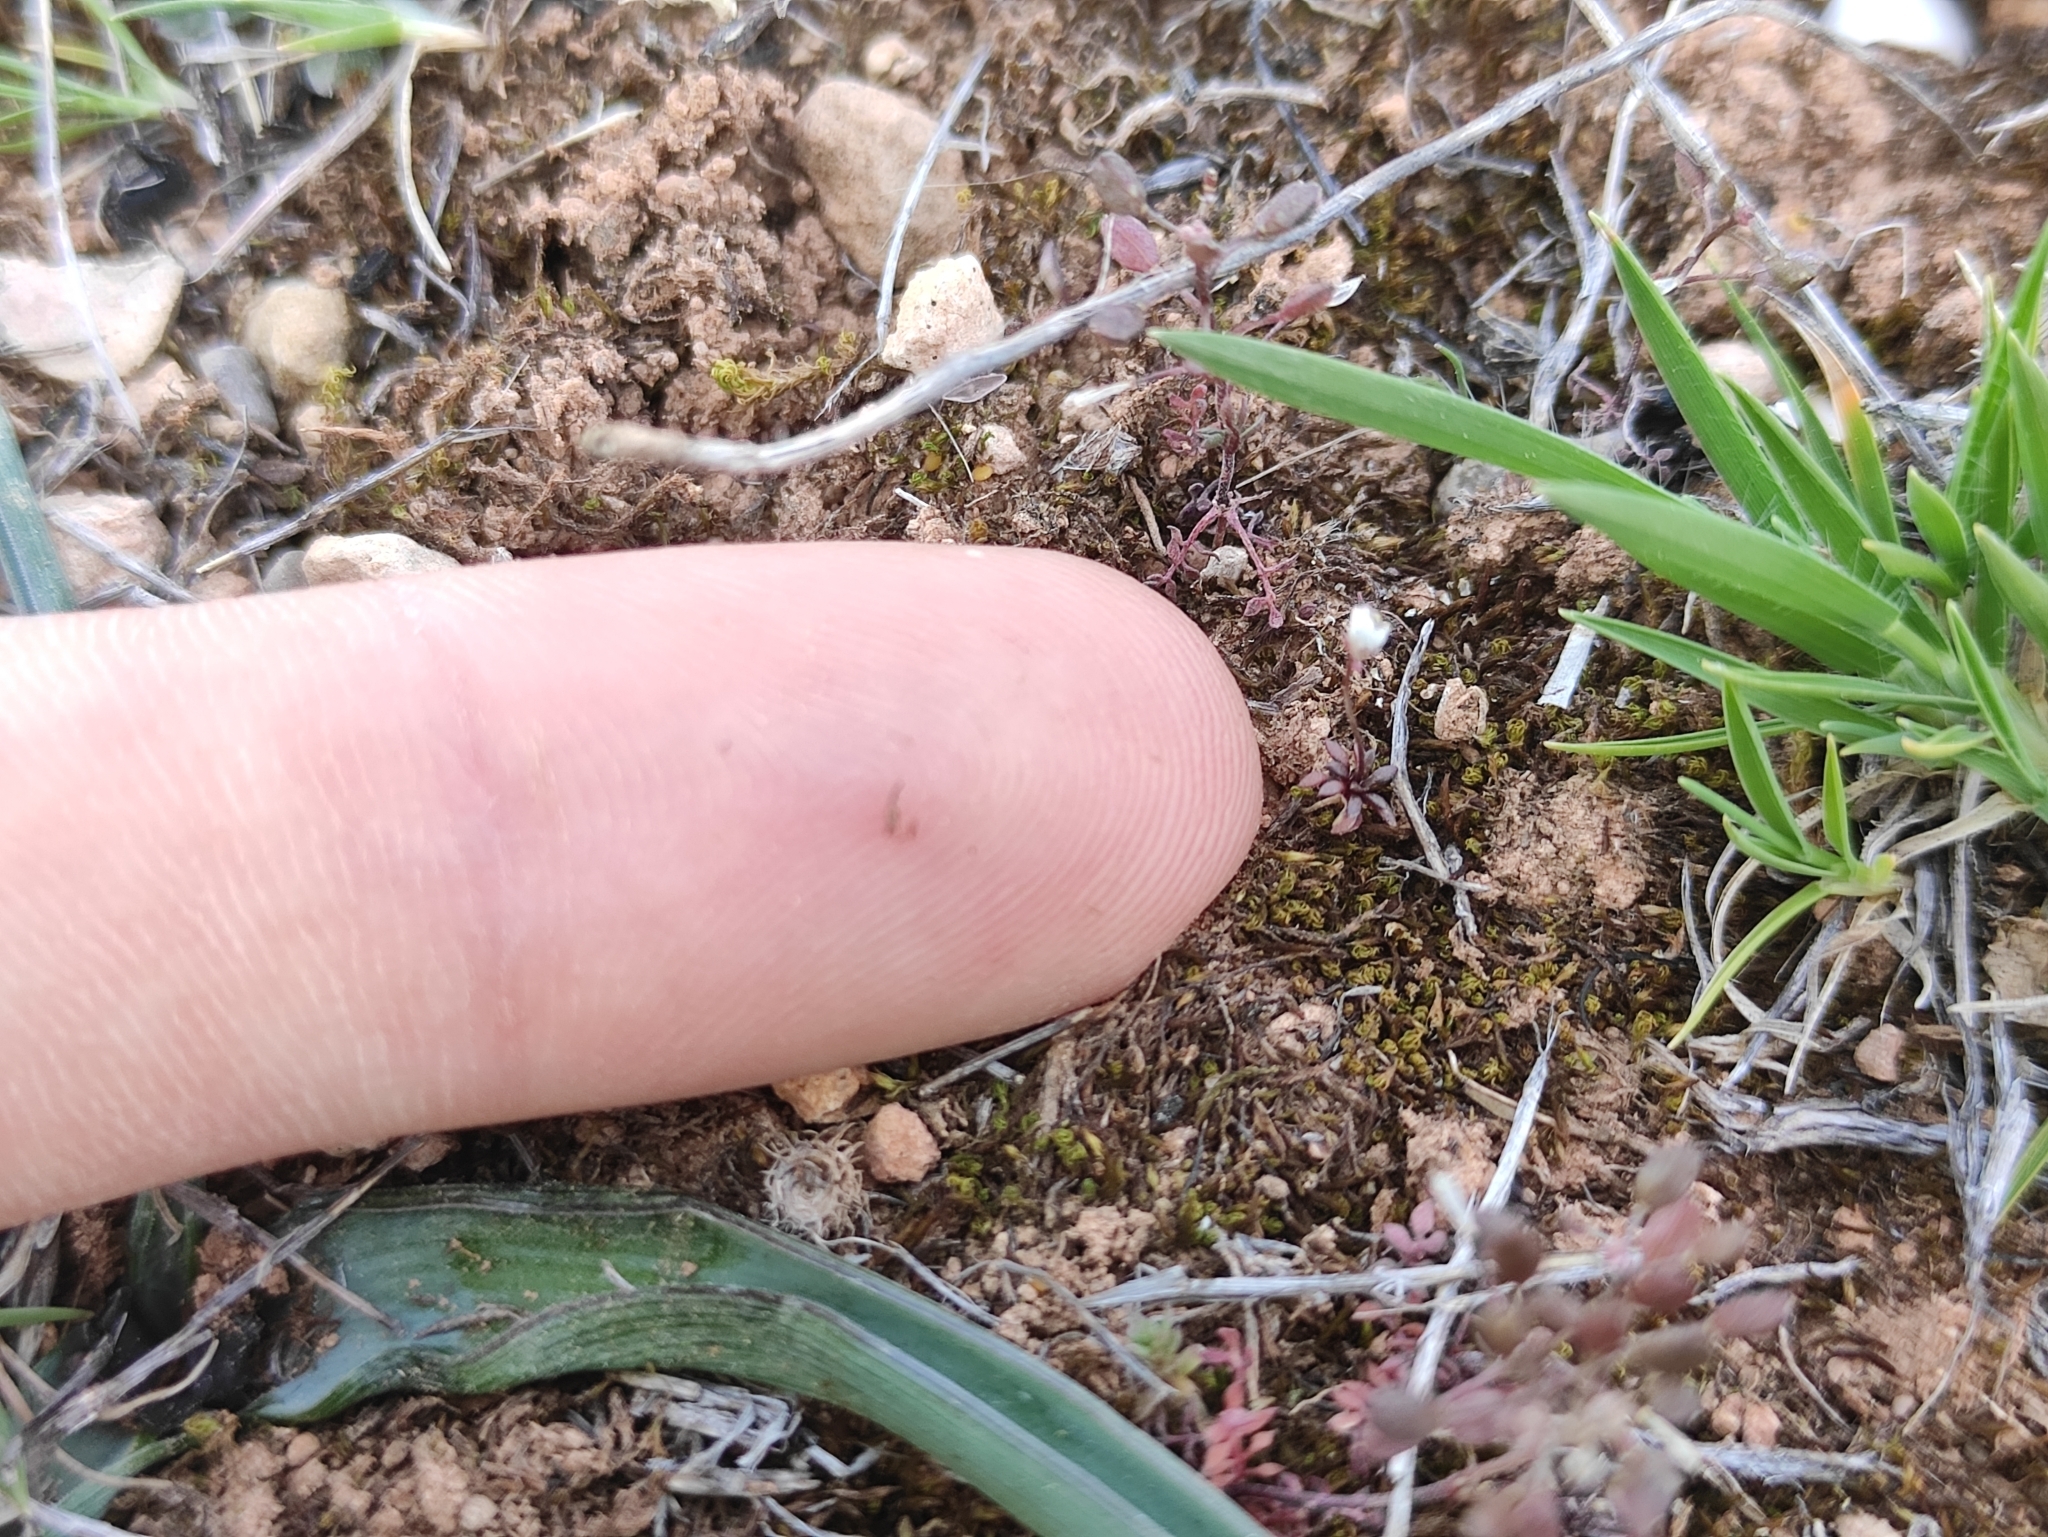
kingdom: Plantae
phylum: Tracheophyta
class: Magnoliopsida
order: Brassicales
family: Brassicaceae
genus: Draba
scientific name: Draba verna
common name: Spring draba
